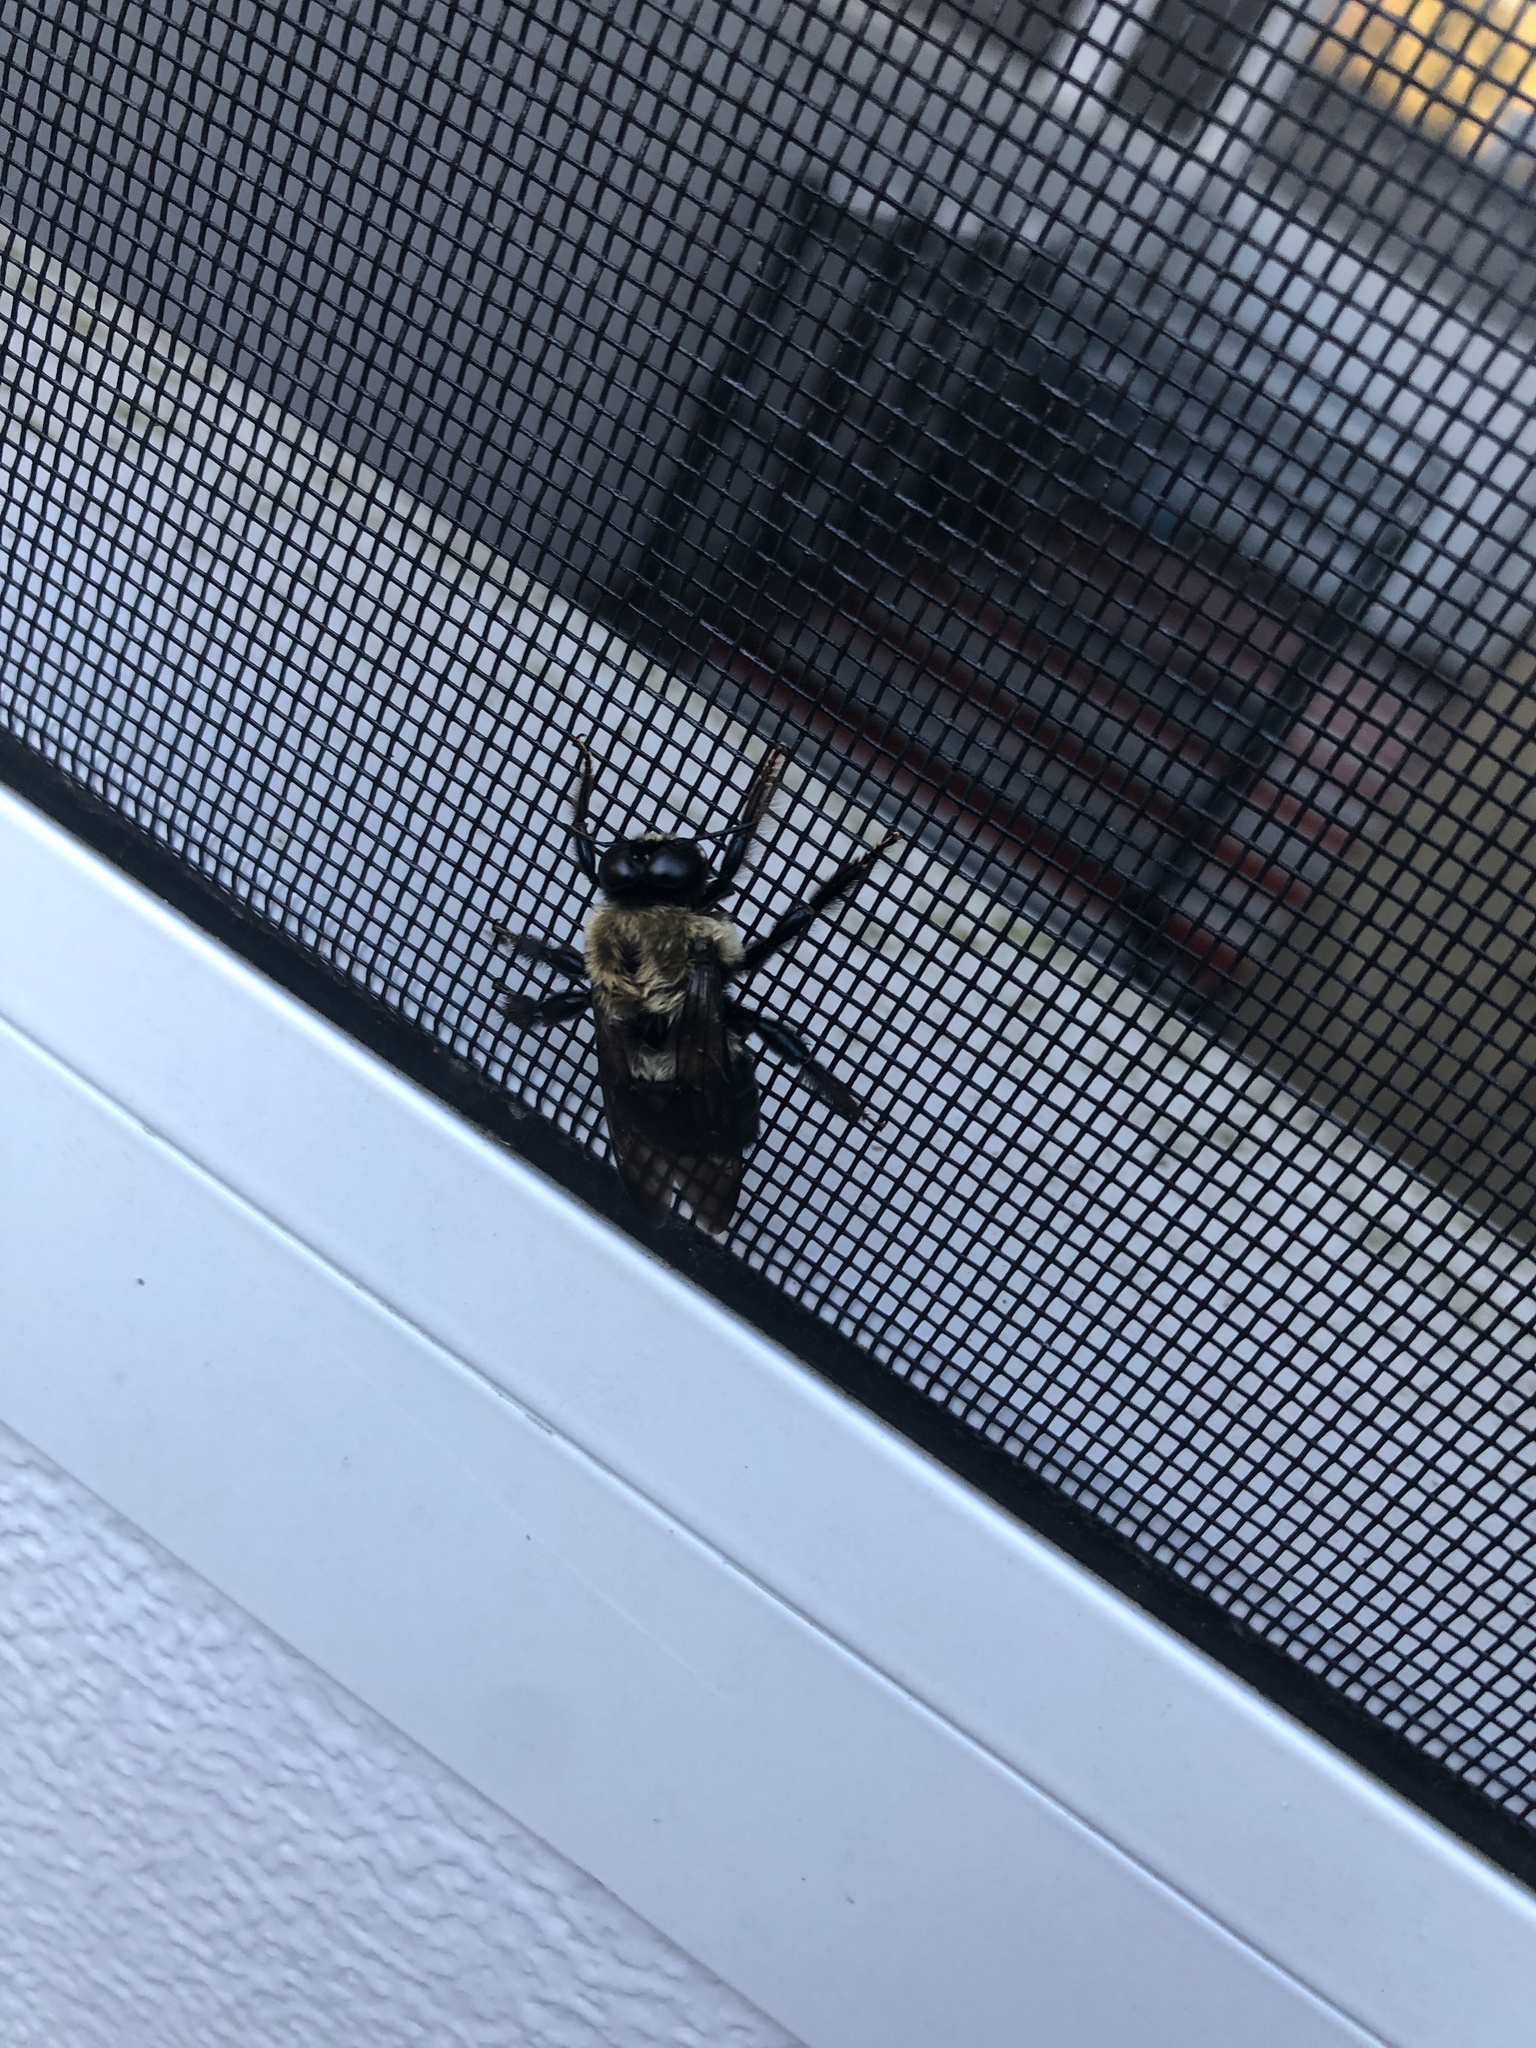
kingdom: Animalia
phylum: Arthropoda
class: Insecta
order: Hymenoptera
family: Apidae
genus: Xylocopa
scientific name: Xylocopa virginica
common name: Carpenter bee
